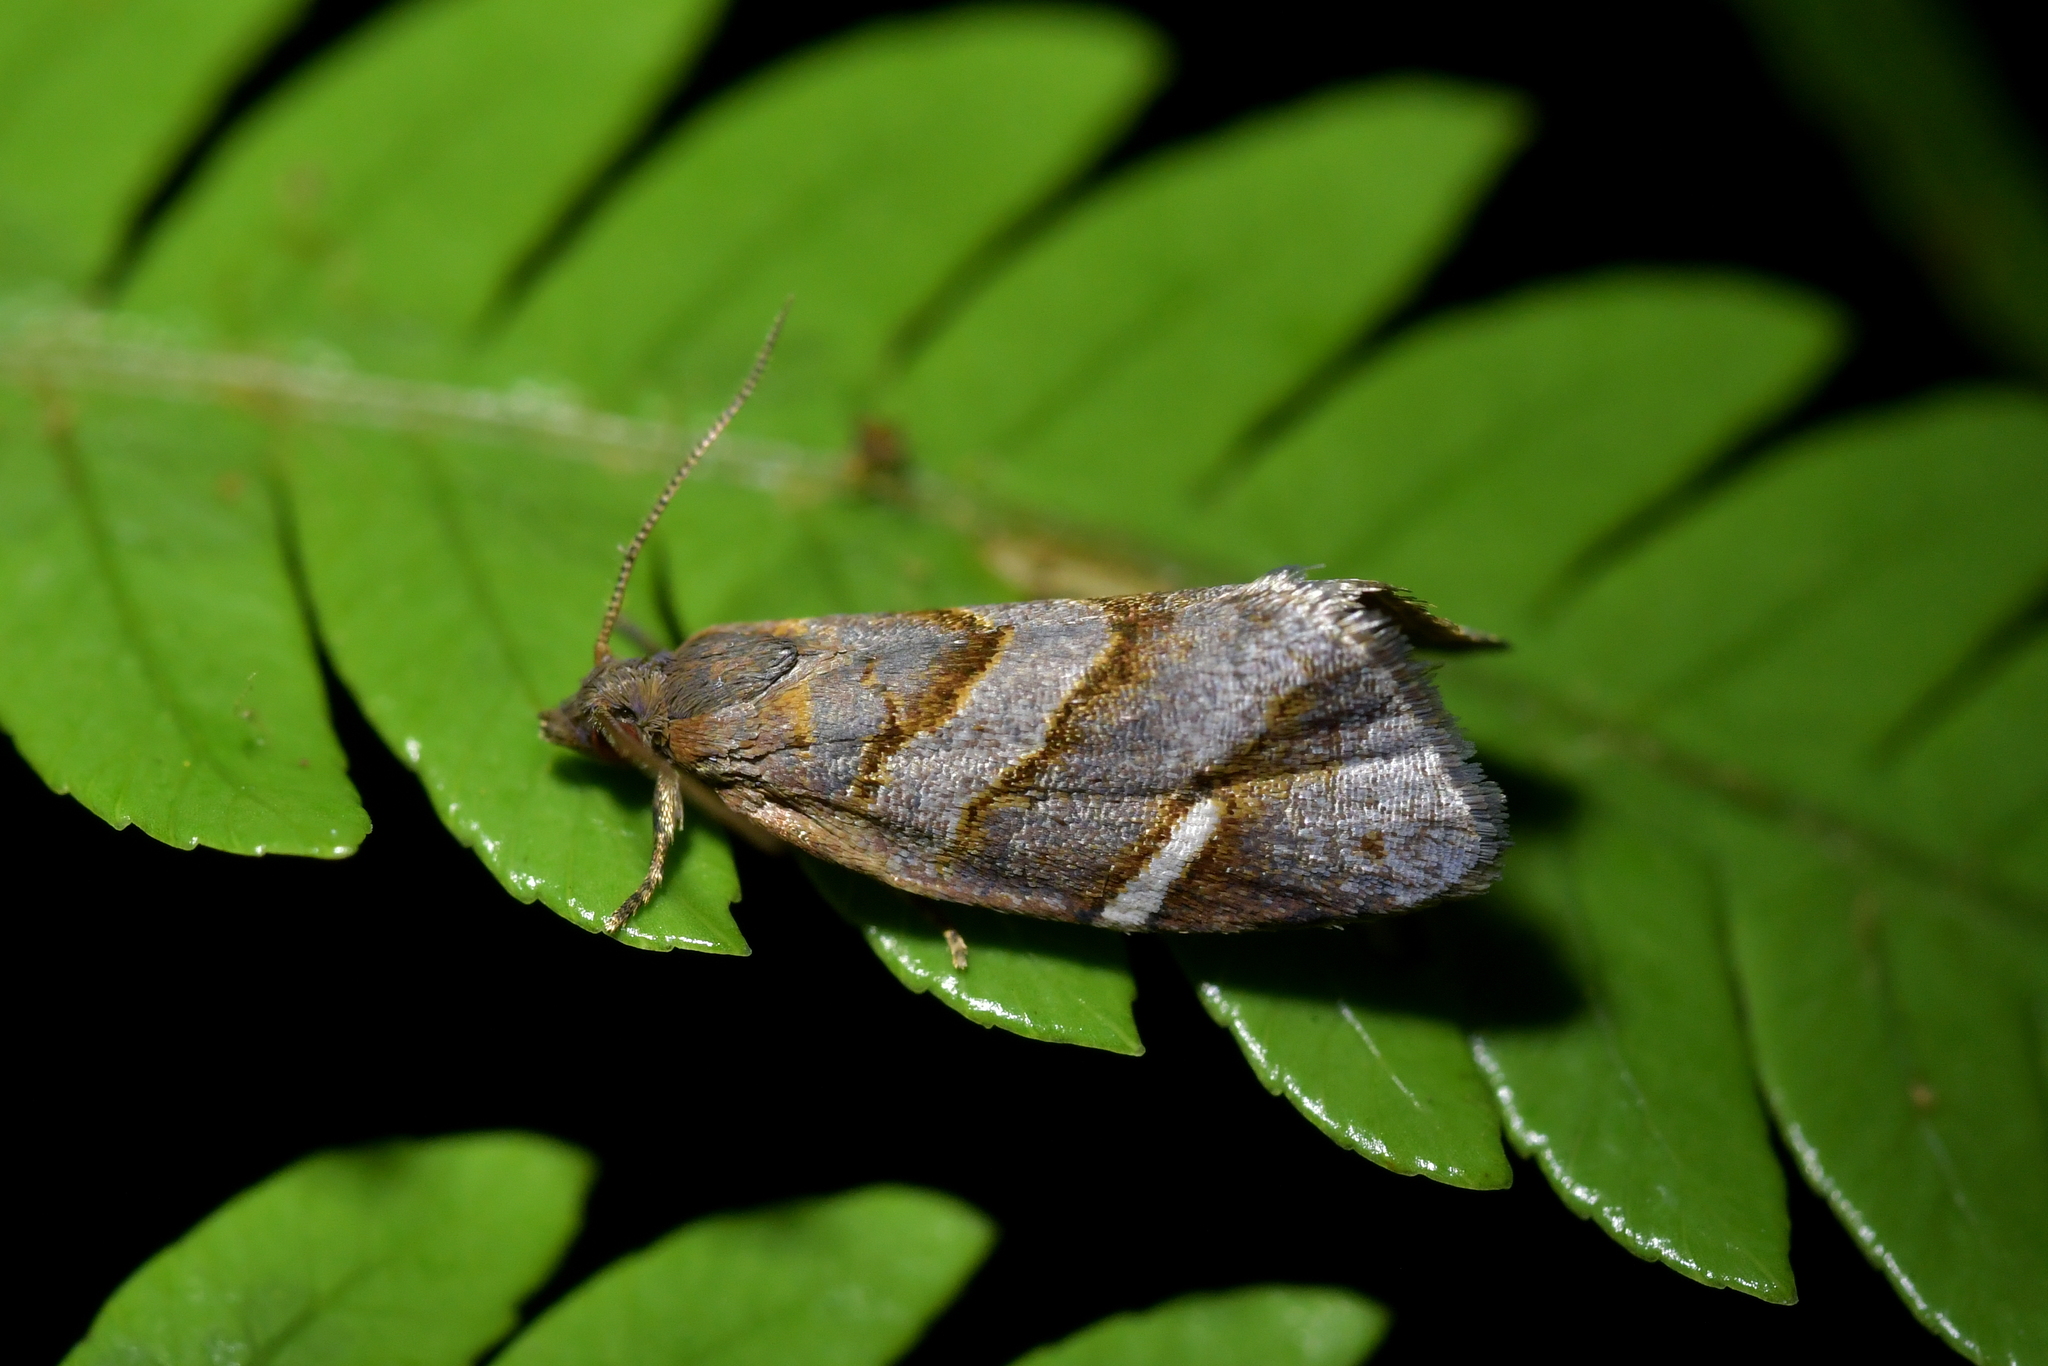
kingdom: Animalia
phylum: Arthropoda
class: Insecta
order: Lepidoptera
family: Tortricidae
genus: Ecclitica
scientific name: Ecclitica torogramma
